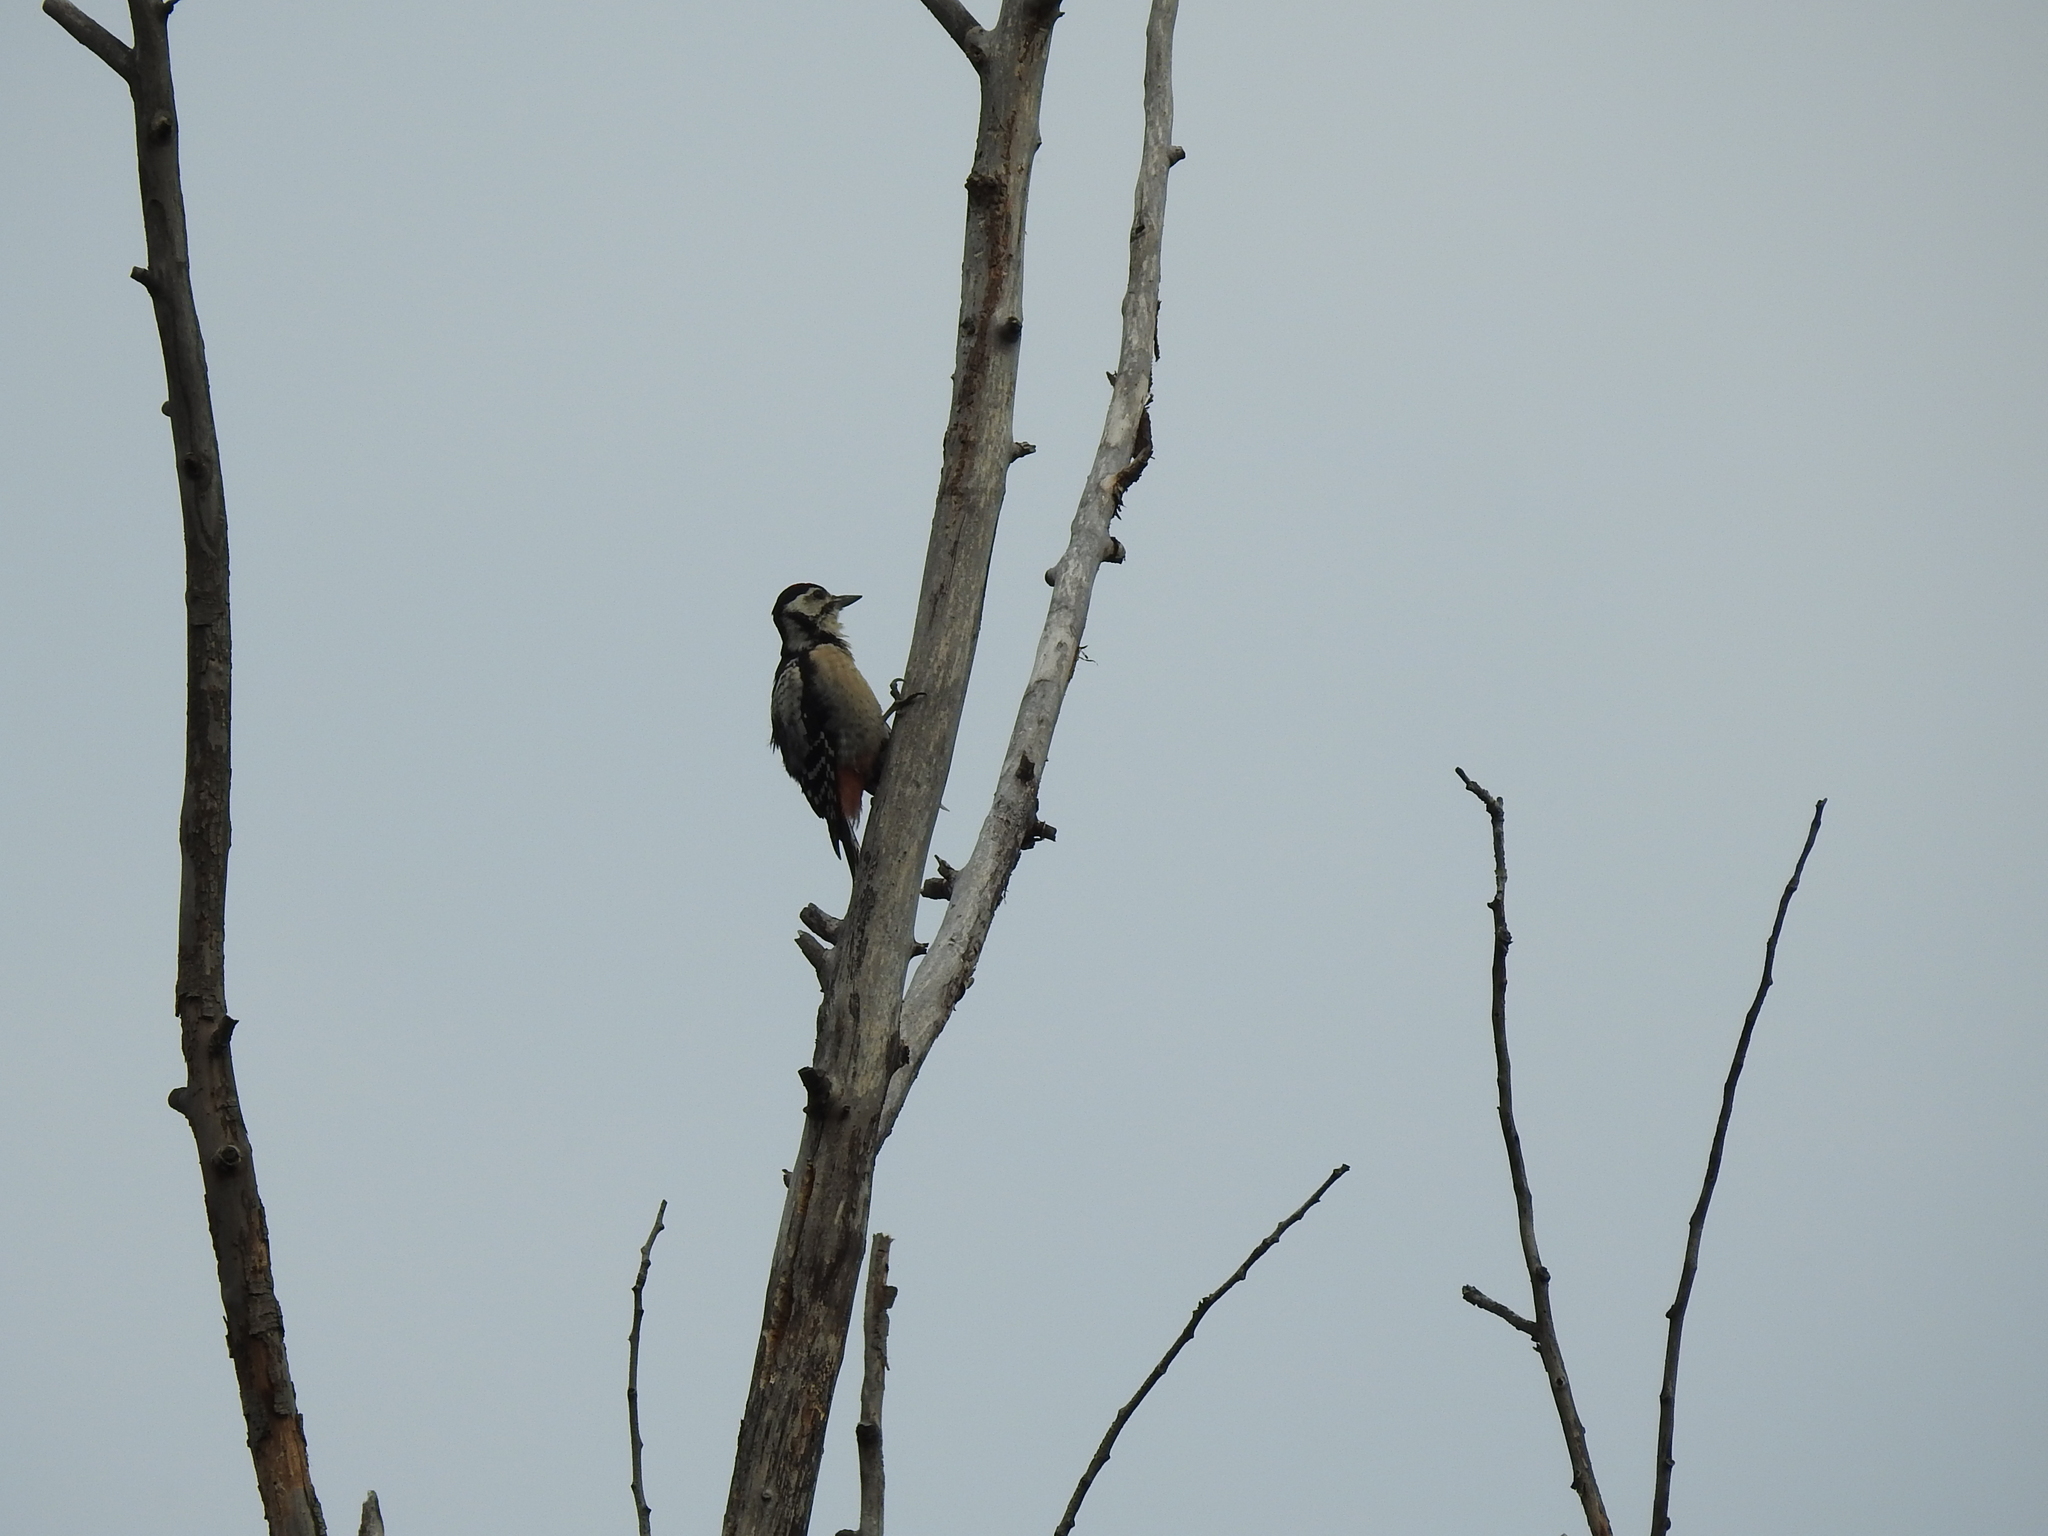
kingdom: Animalia
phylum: Chordata
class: Aves
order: Piciformes
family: Picidae
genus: Dendrocopos
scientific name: Dendrocopos major
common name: Great spotted woodpecker
